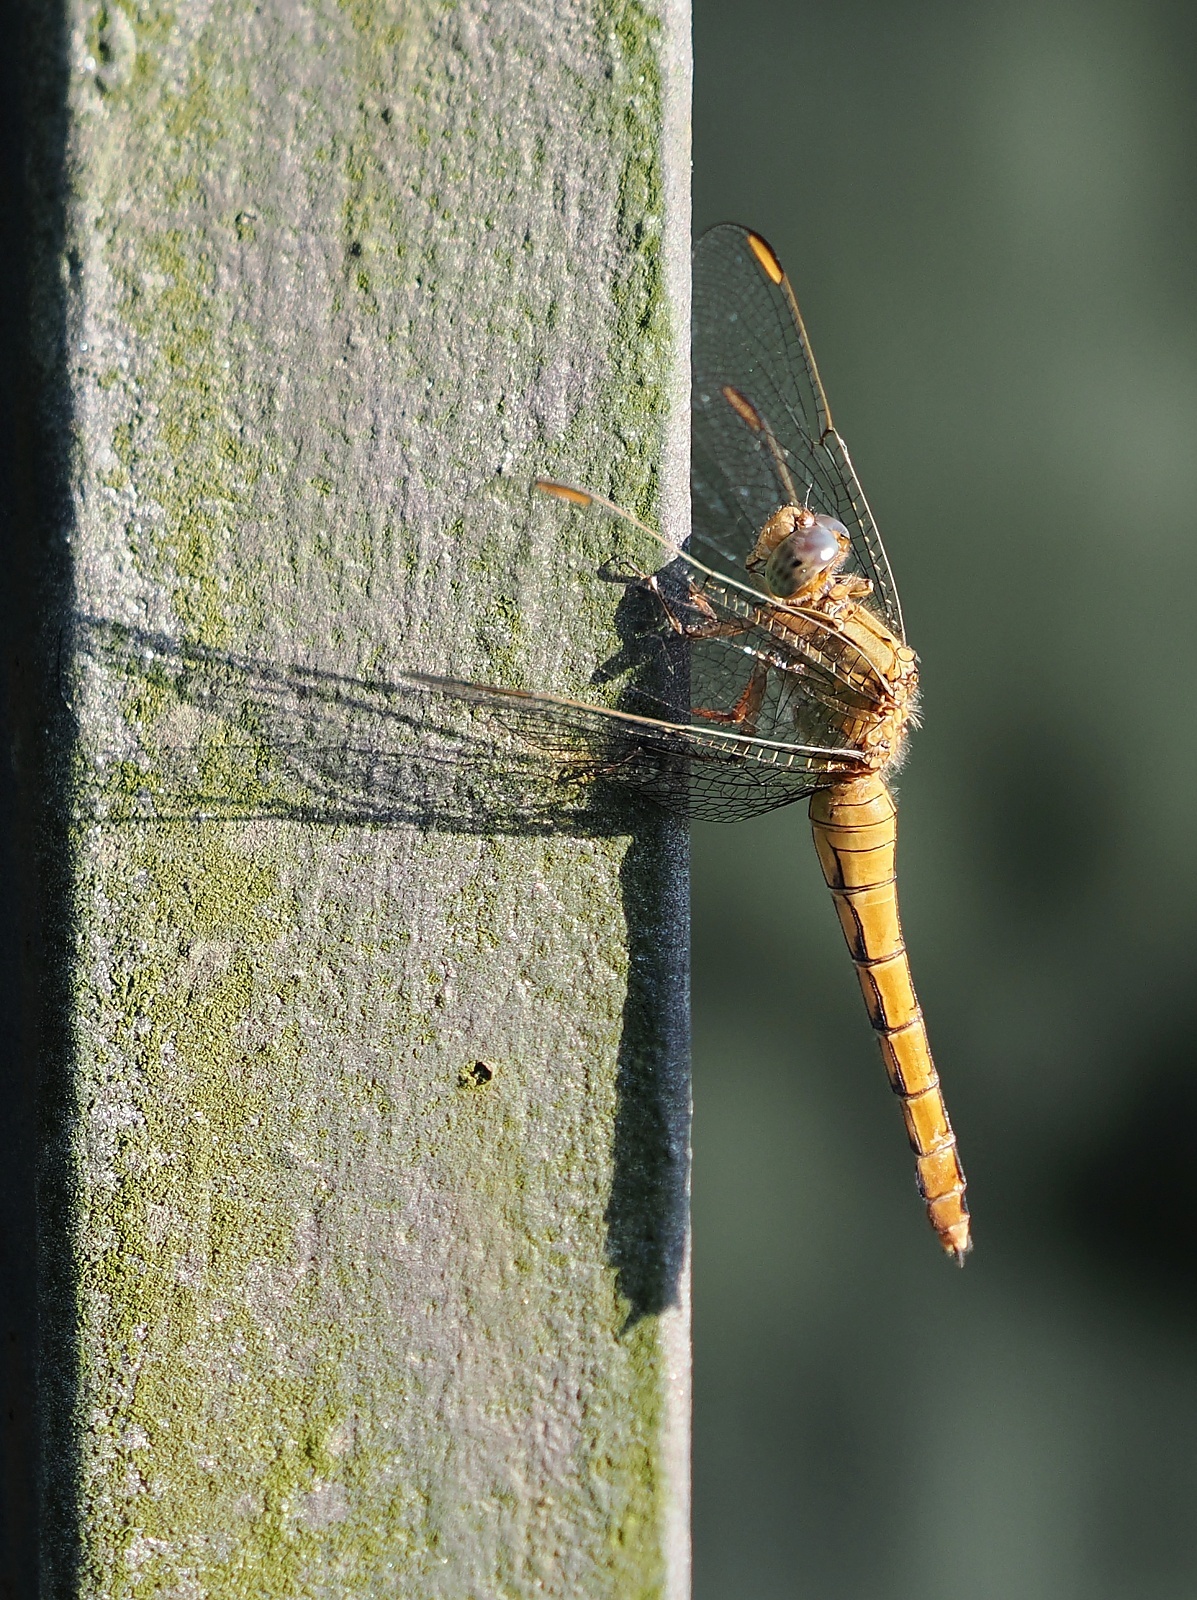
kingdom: Animalia
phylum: Arthropoda
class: Insecta
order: Odonata
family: Libellulidae
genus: Orthetrum
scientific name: Orthetrum coerulescens
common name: Keeled skimmer
